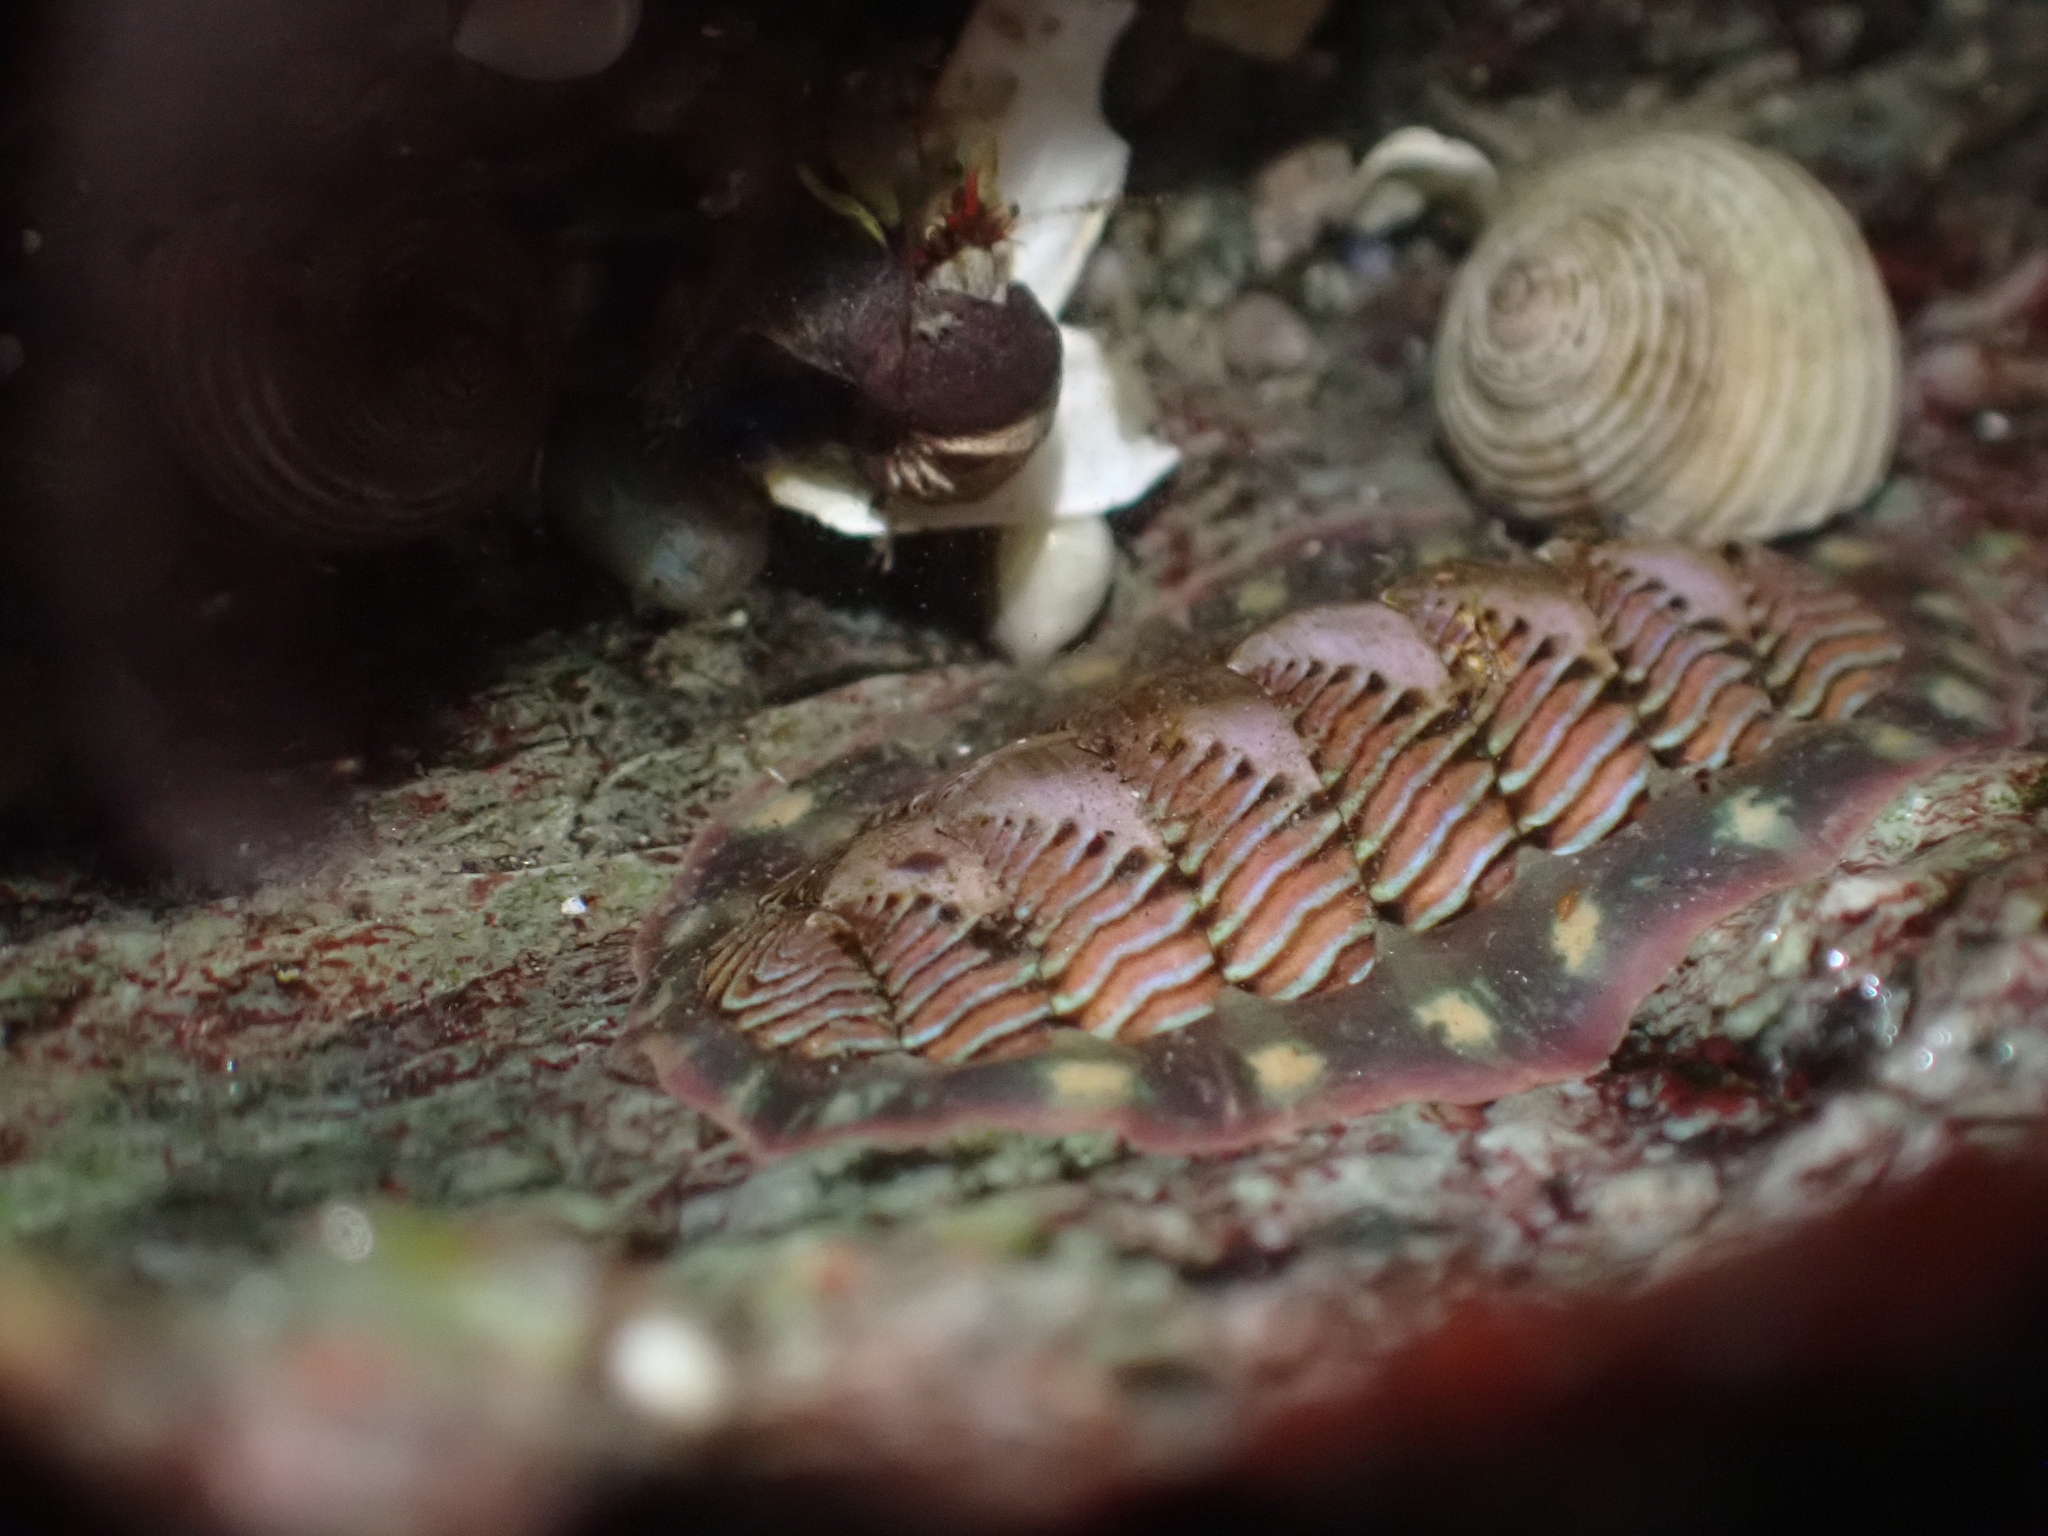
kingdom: Animalia
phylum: Mollusca
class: Polyplacophora
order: Chitonida
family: Tonicellidae
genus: Tonicella
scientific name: Tonicella lineata
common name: Lined chiton
